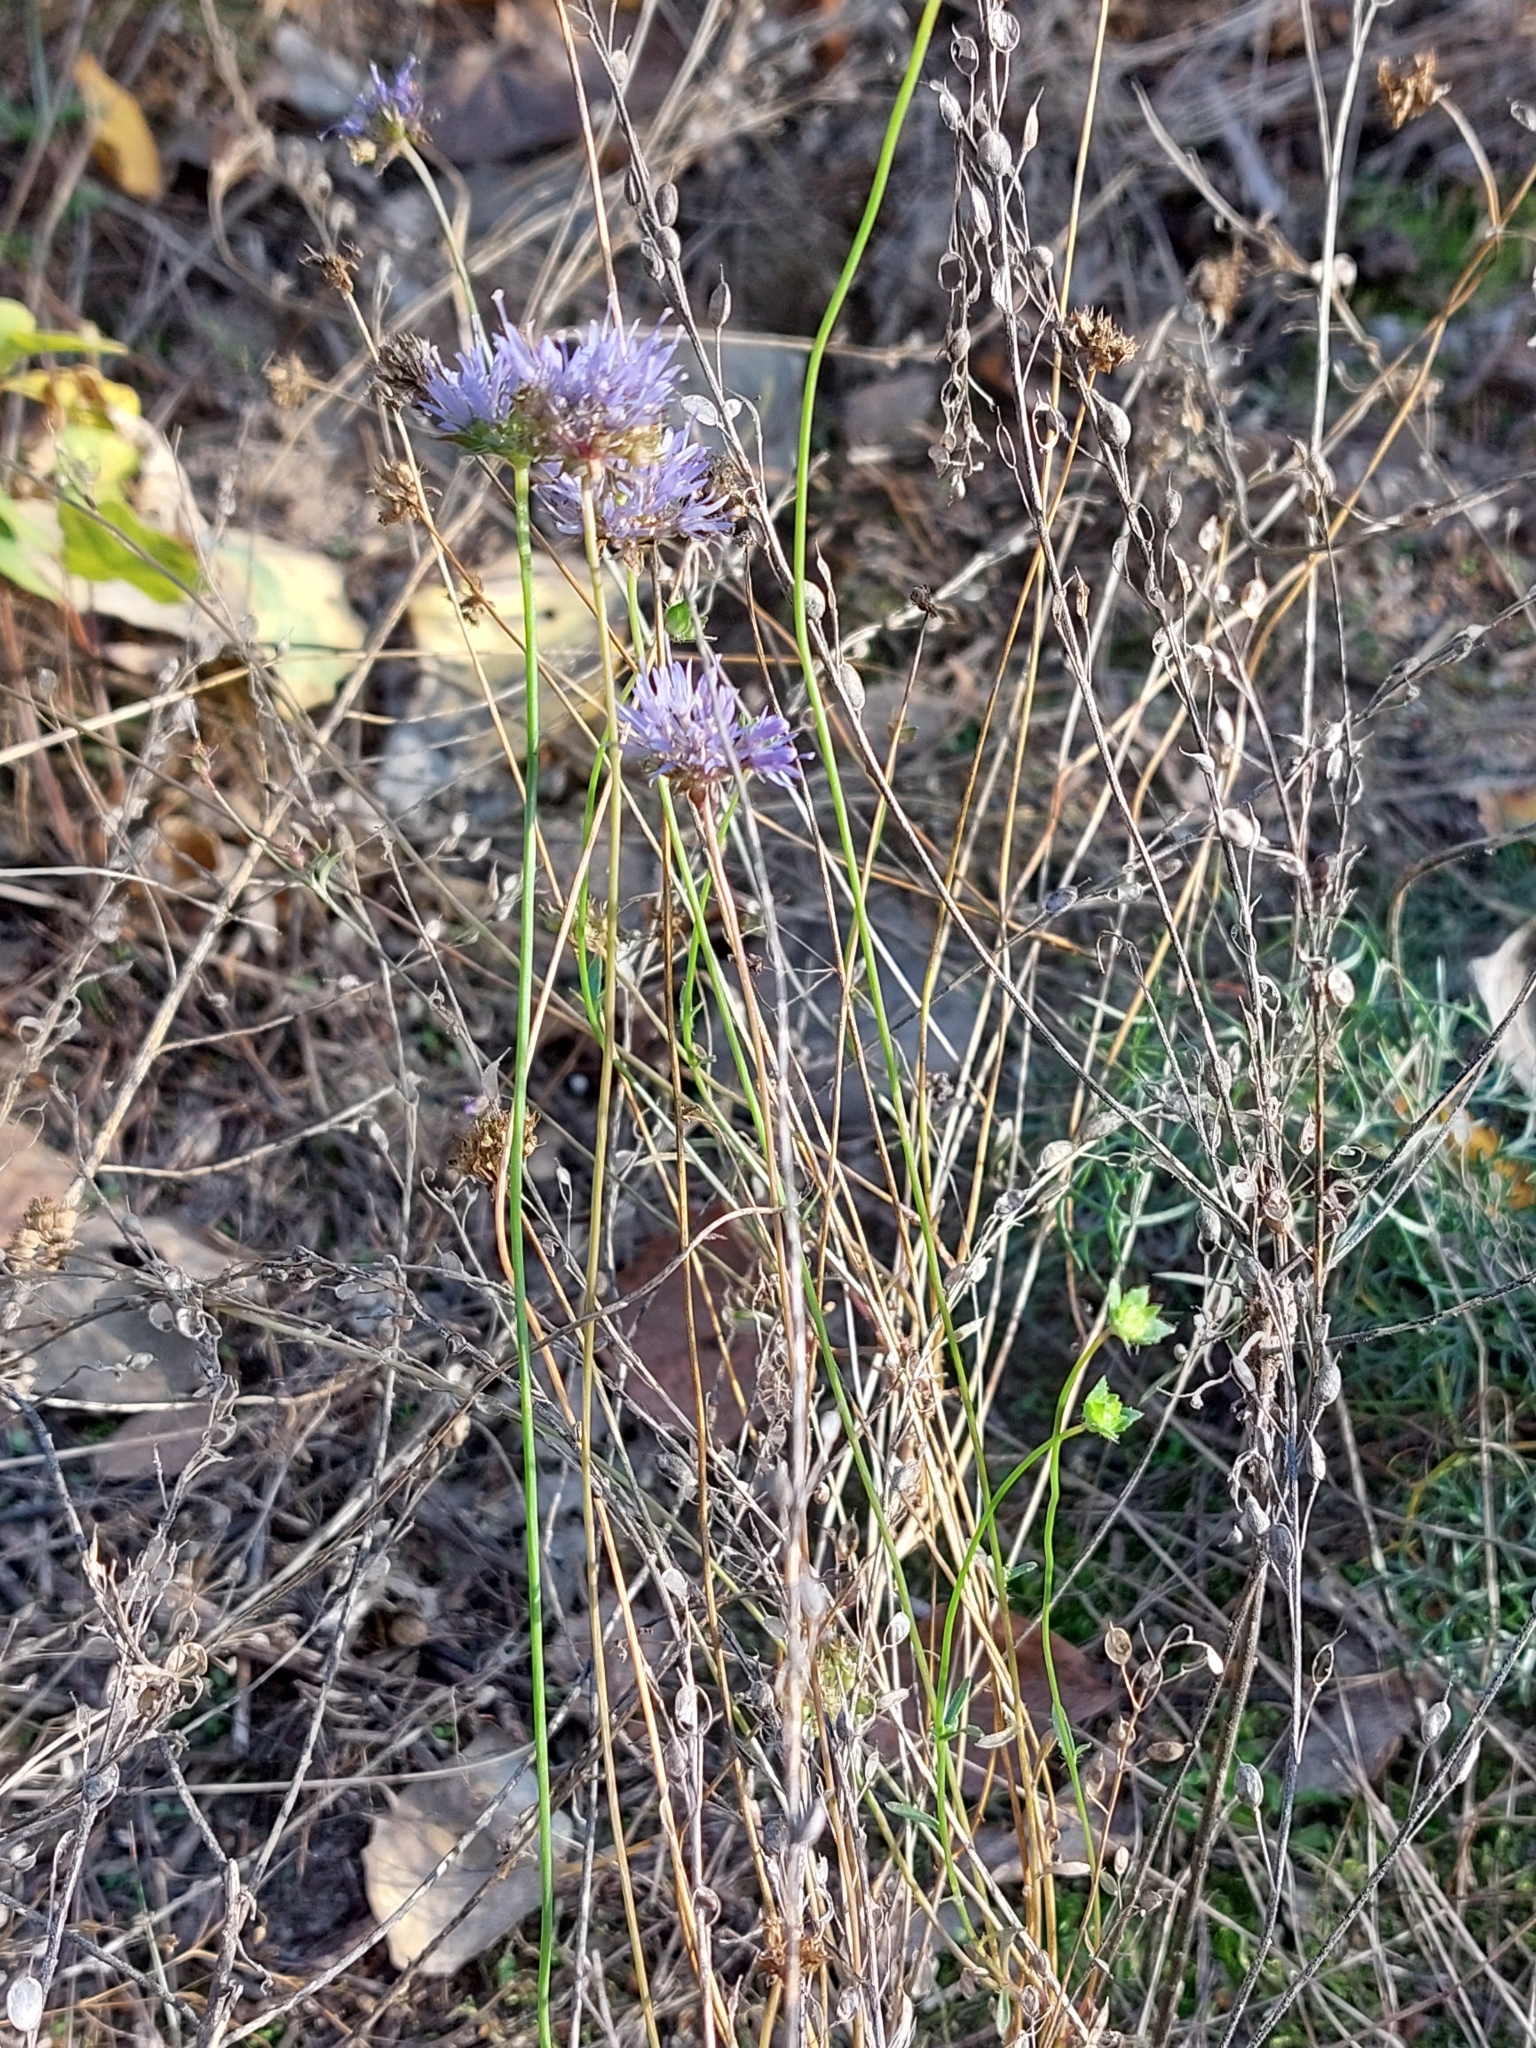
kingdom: Plantae
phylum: Tracheophyta
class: Magnoliopsida
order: Asterales
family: Campanulaceae
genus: Jasione
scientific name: Jasione montana
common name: Sheep's-bit
